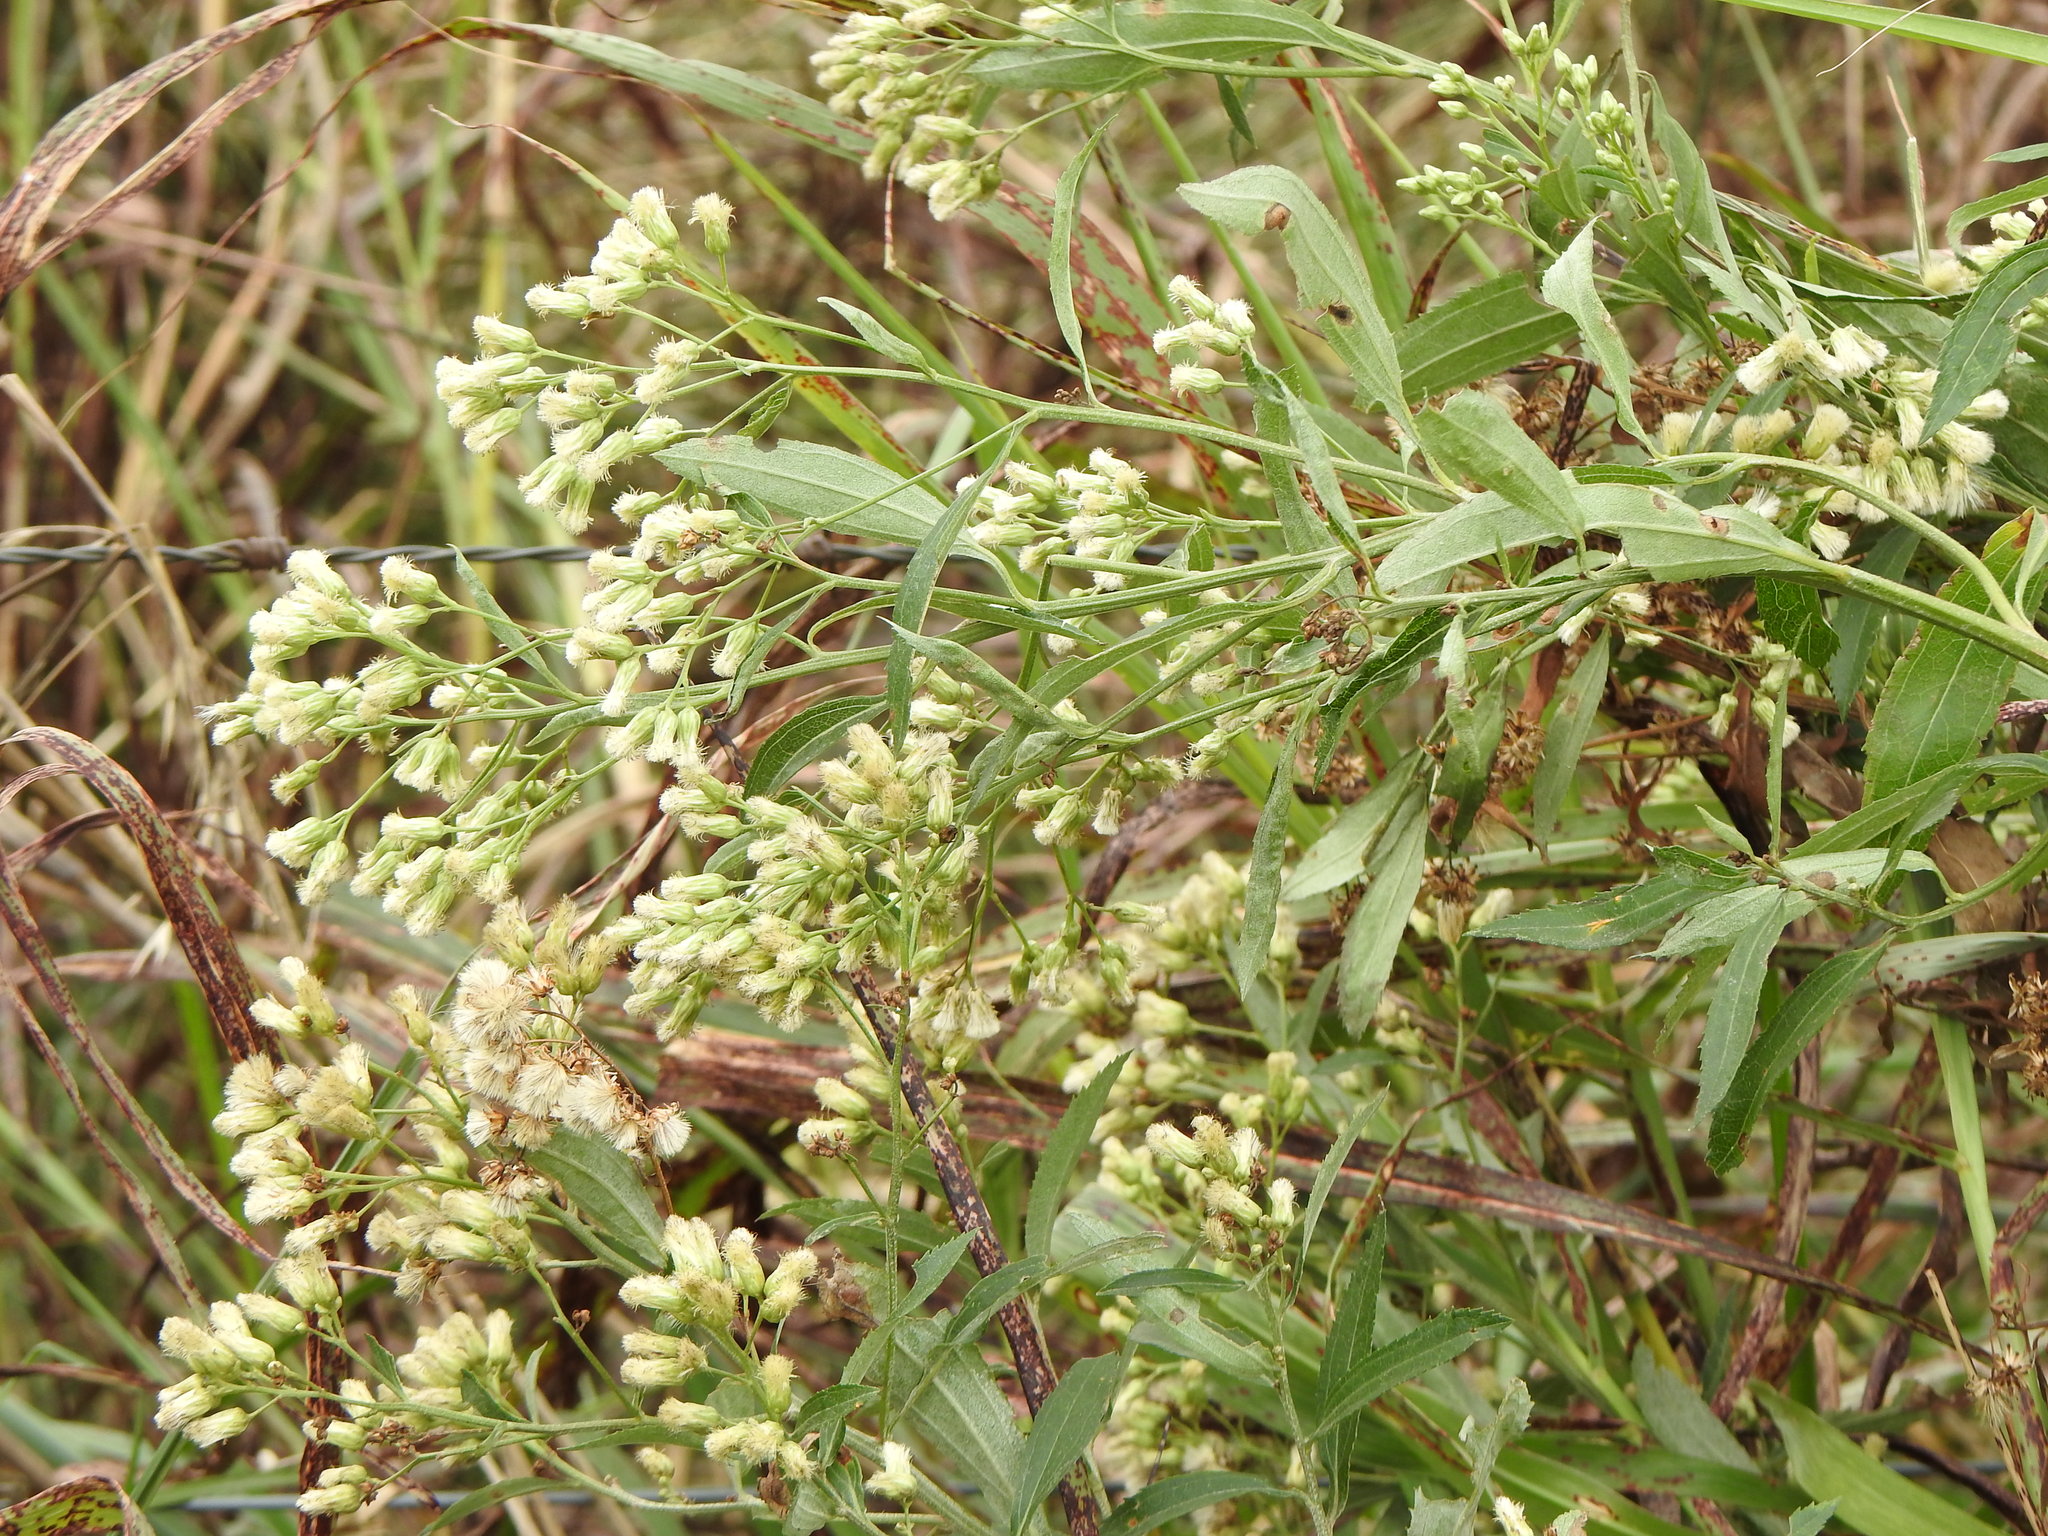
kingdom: Plantae
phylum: Tracheophyta
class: Magnoliopsida
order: Asterales
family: Asteraceae
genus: Baccharis
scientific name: Baccharis salicifolia
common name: Sticky baccharis
